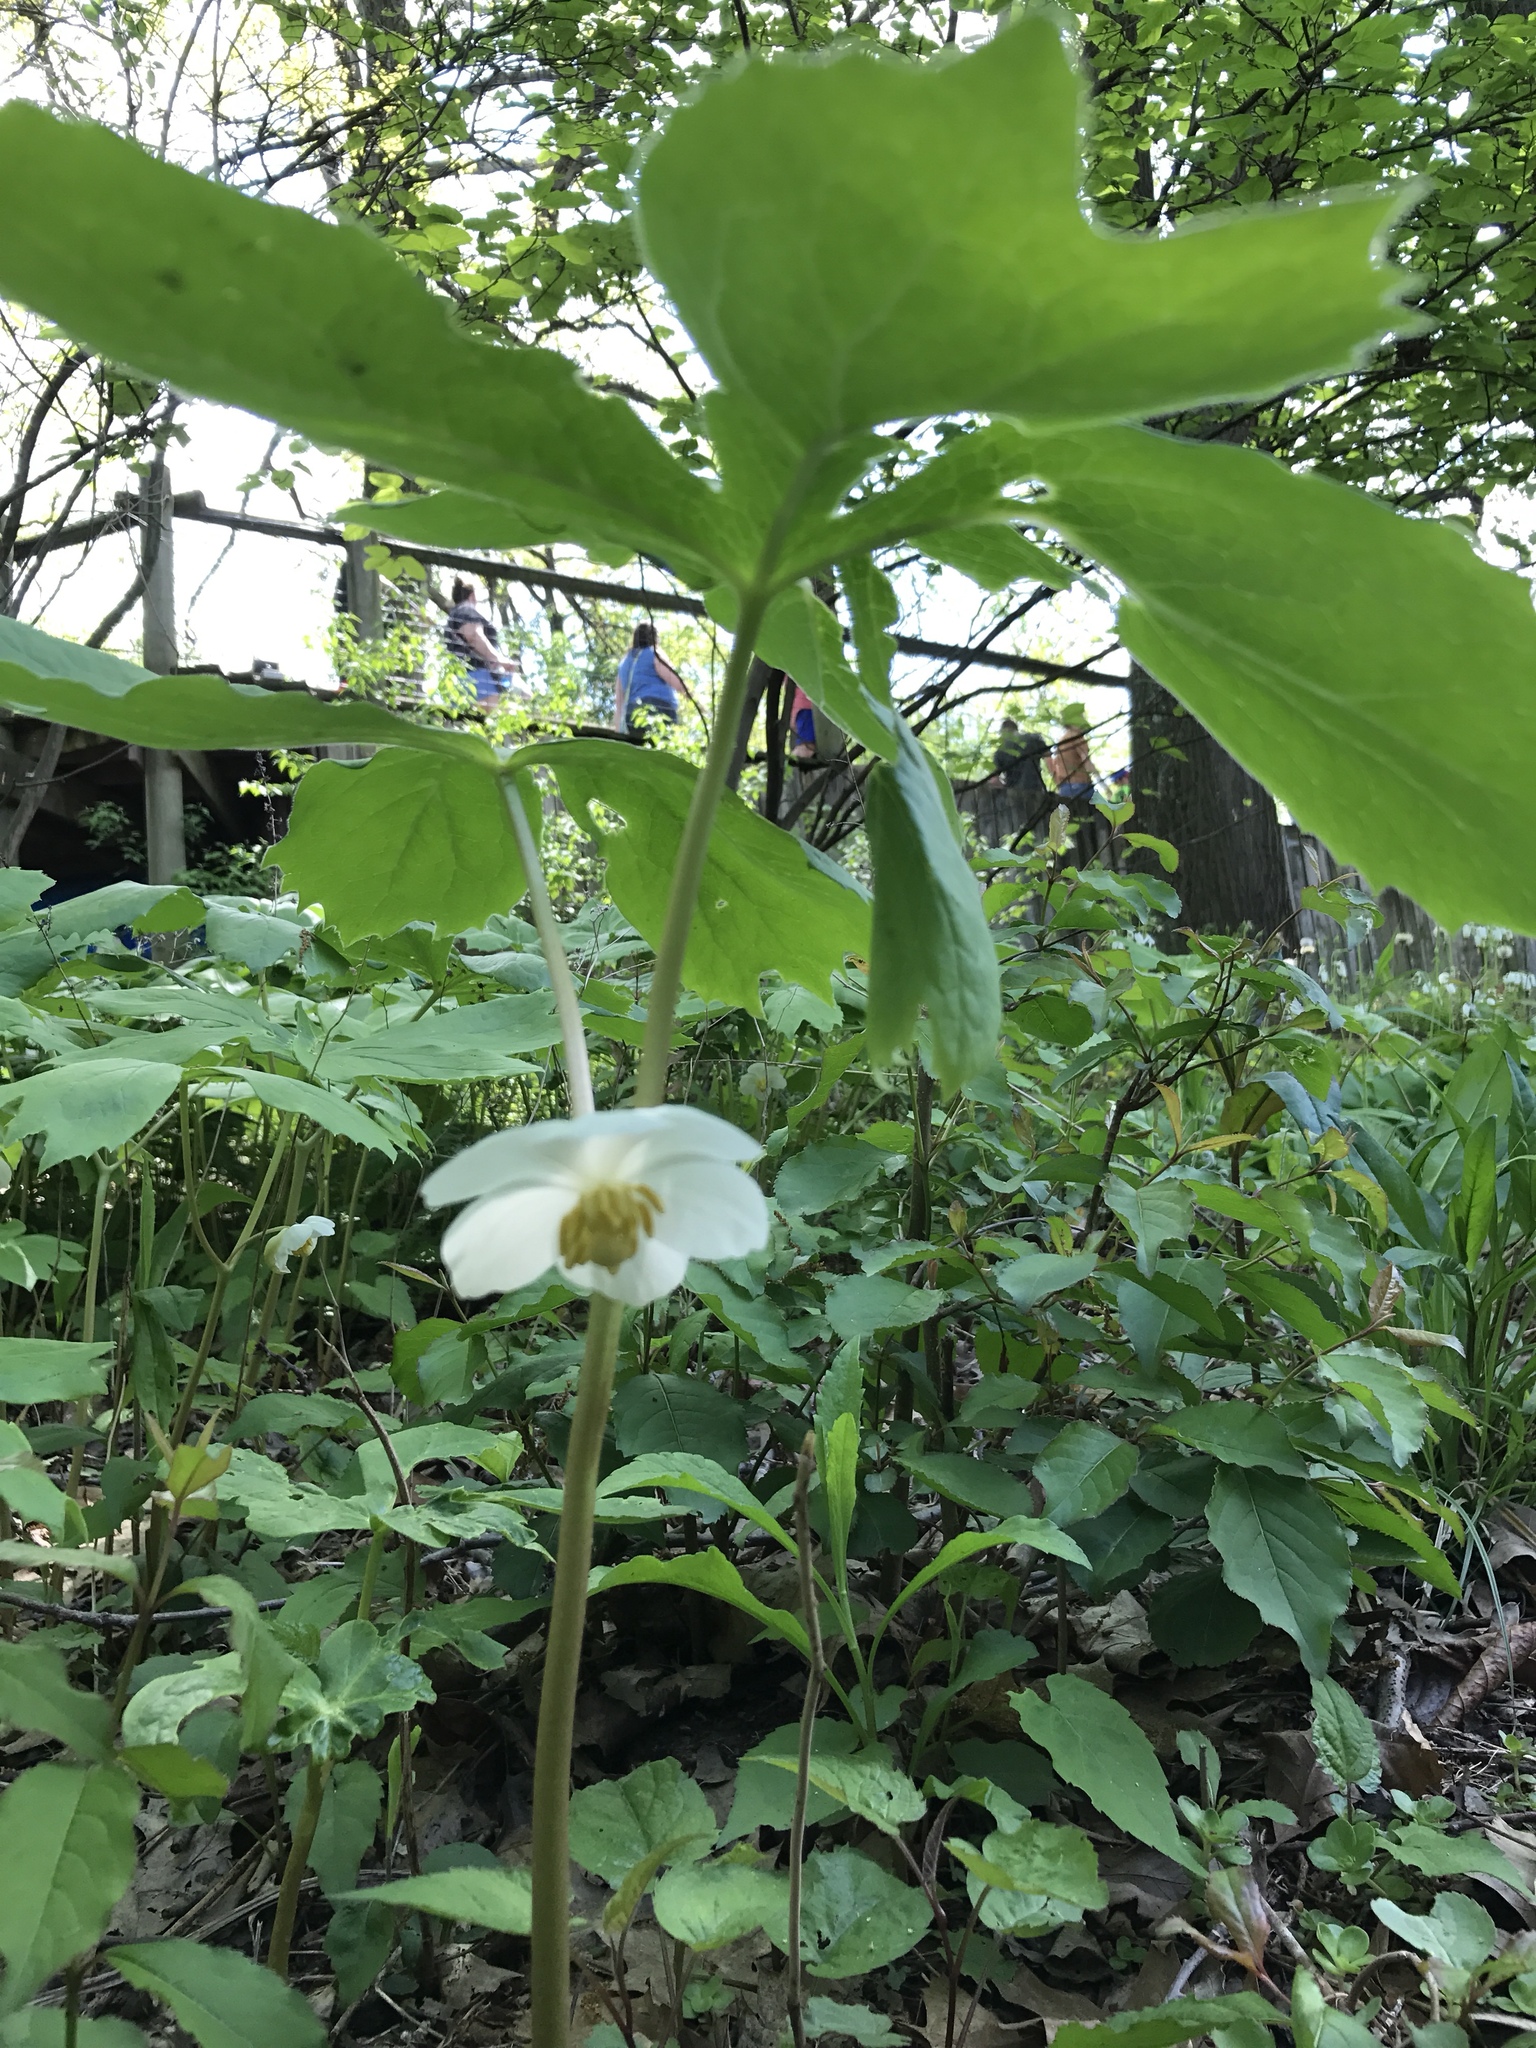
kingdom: Plantae
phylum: Tracheophyta
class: Magnoliopsida
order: Ranunculales
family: Berberidaceae
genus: Podophyllum
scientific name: Podophyllum peltatum
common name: Wild mandrake
